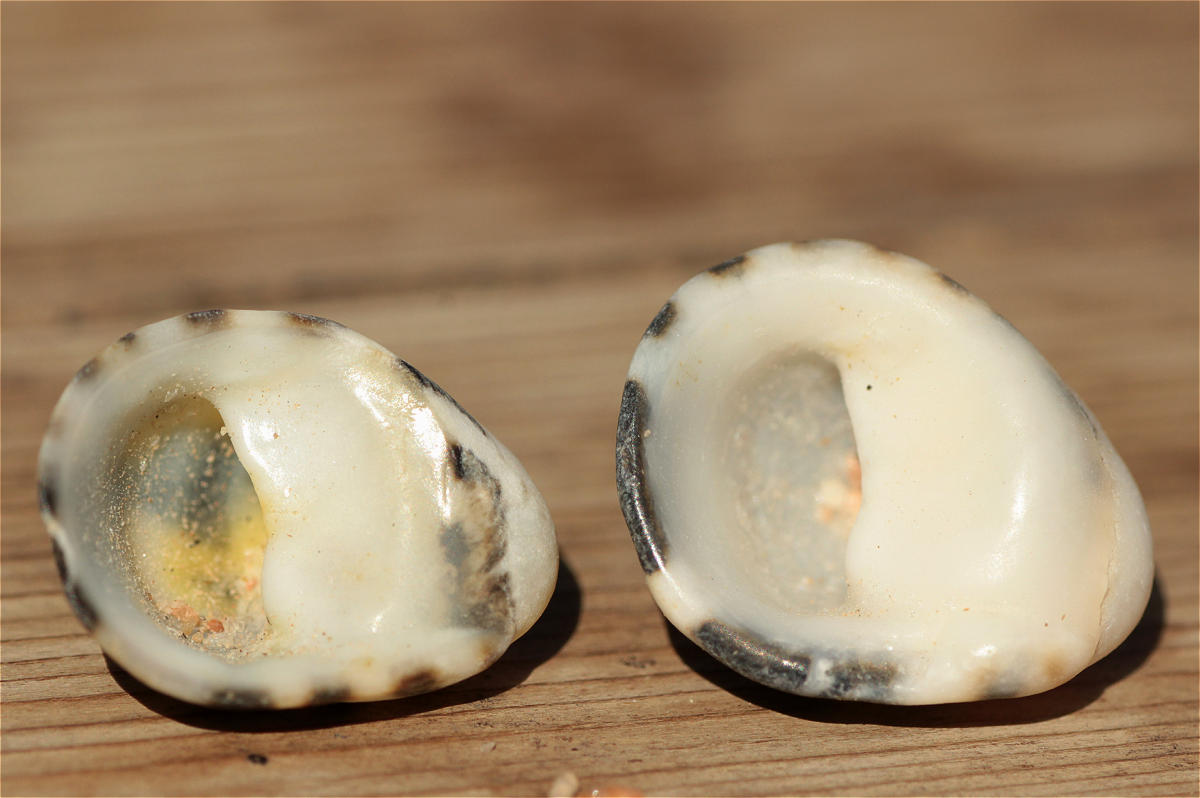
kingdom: Animalia
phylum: Mollusca
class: Gastropoda
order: Cycloneritida
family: Neritidae
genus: Nerita
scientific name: Nerita albicilla
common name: Blotched nerite
